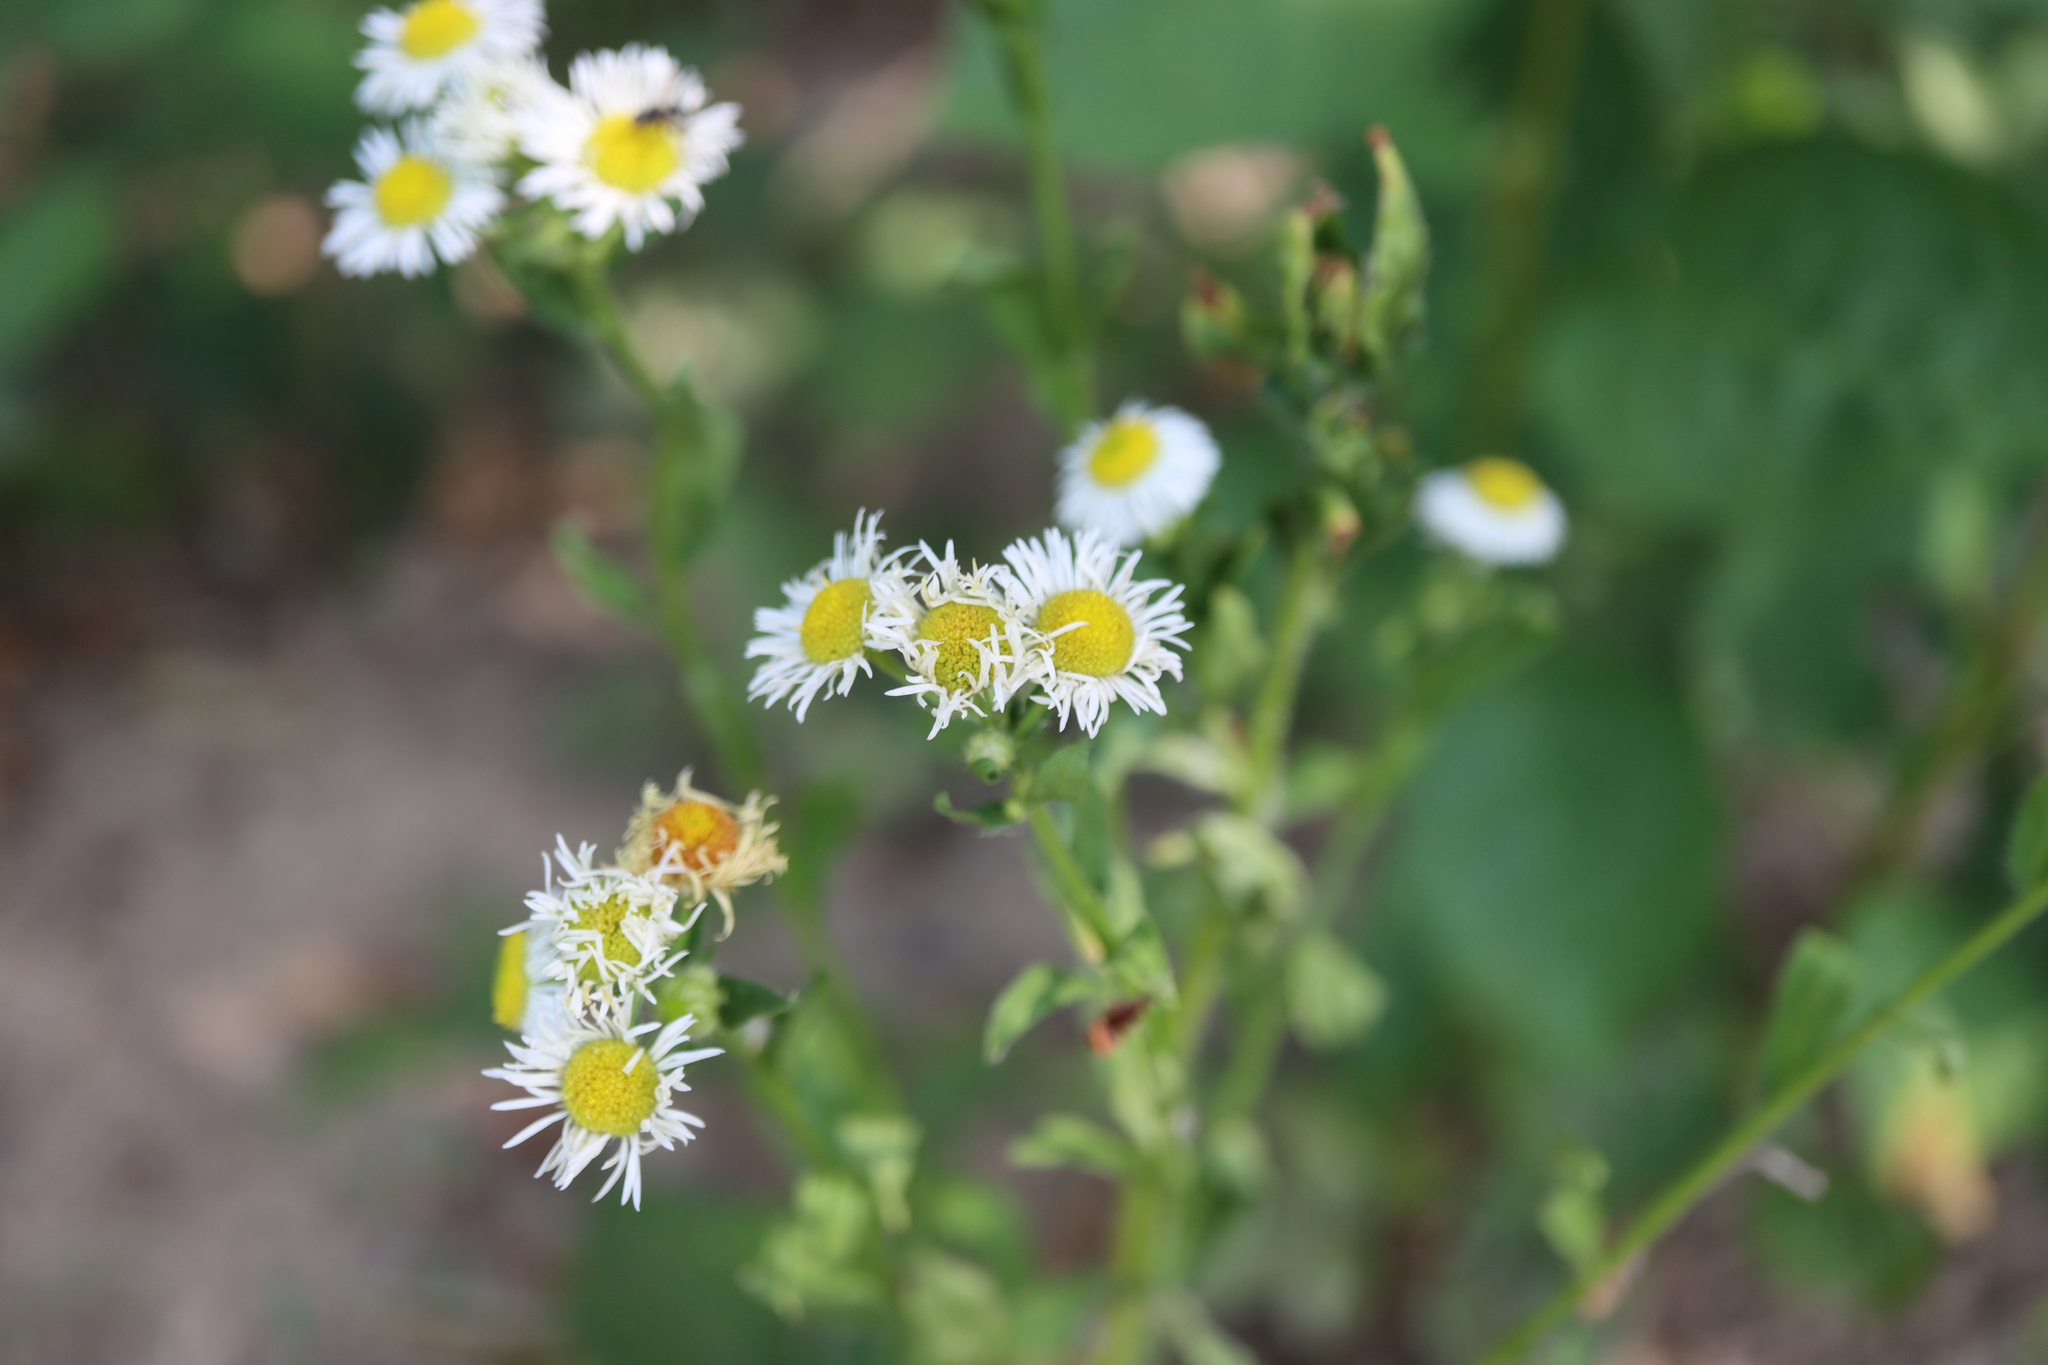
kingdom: Plantae
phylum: Tracheophyta
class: Magnoliopsida
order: Asterales
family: Asteraceae
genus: Erigeron
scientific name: Erigeron annuus
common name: Tall fleabane
